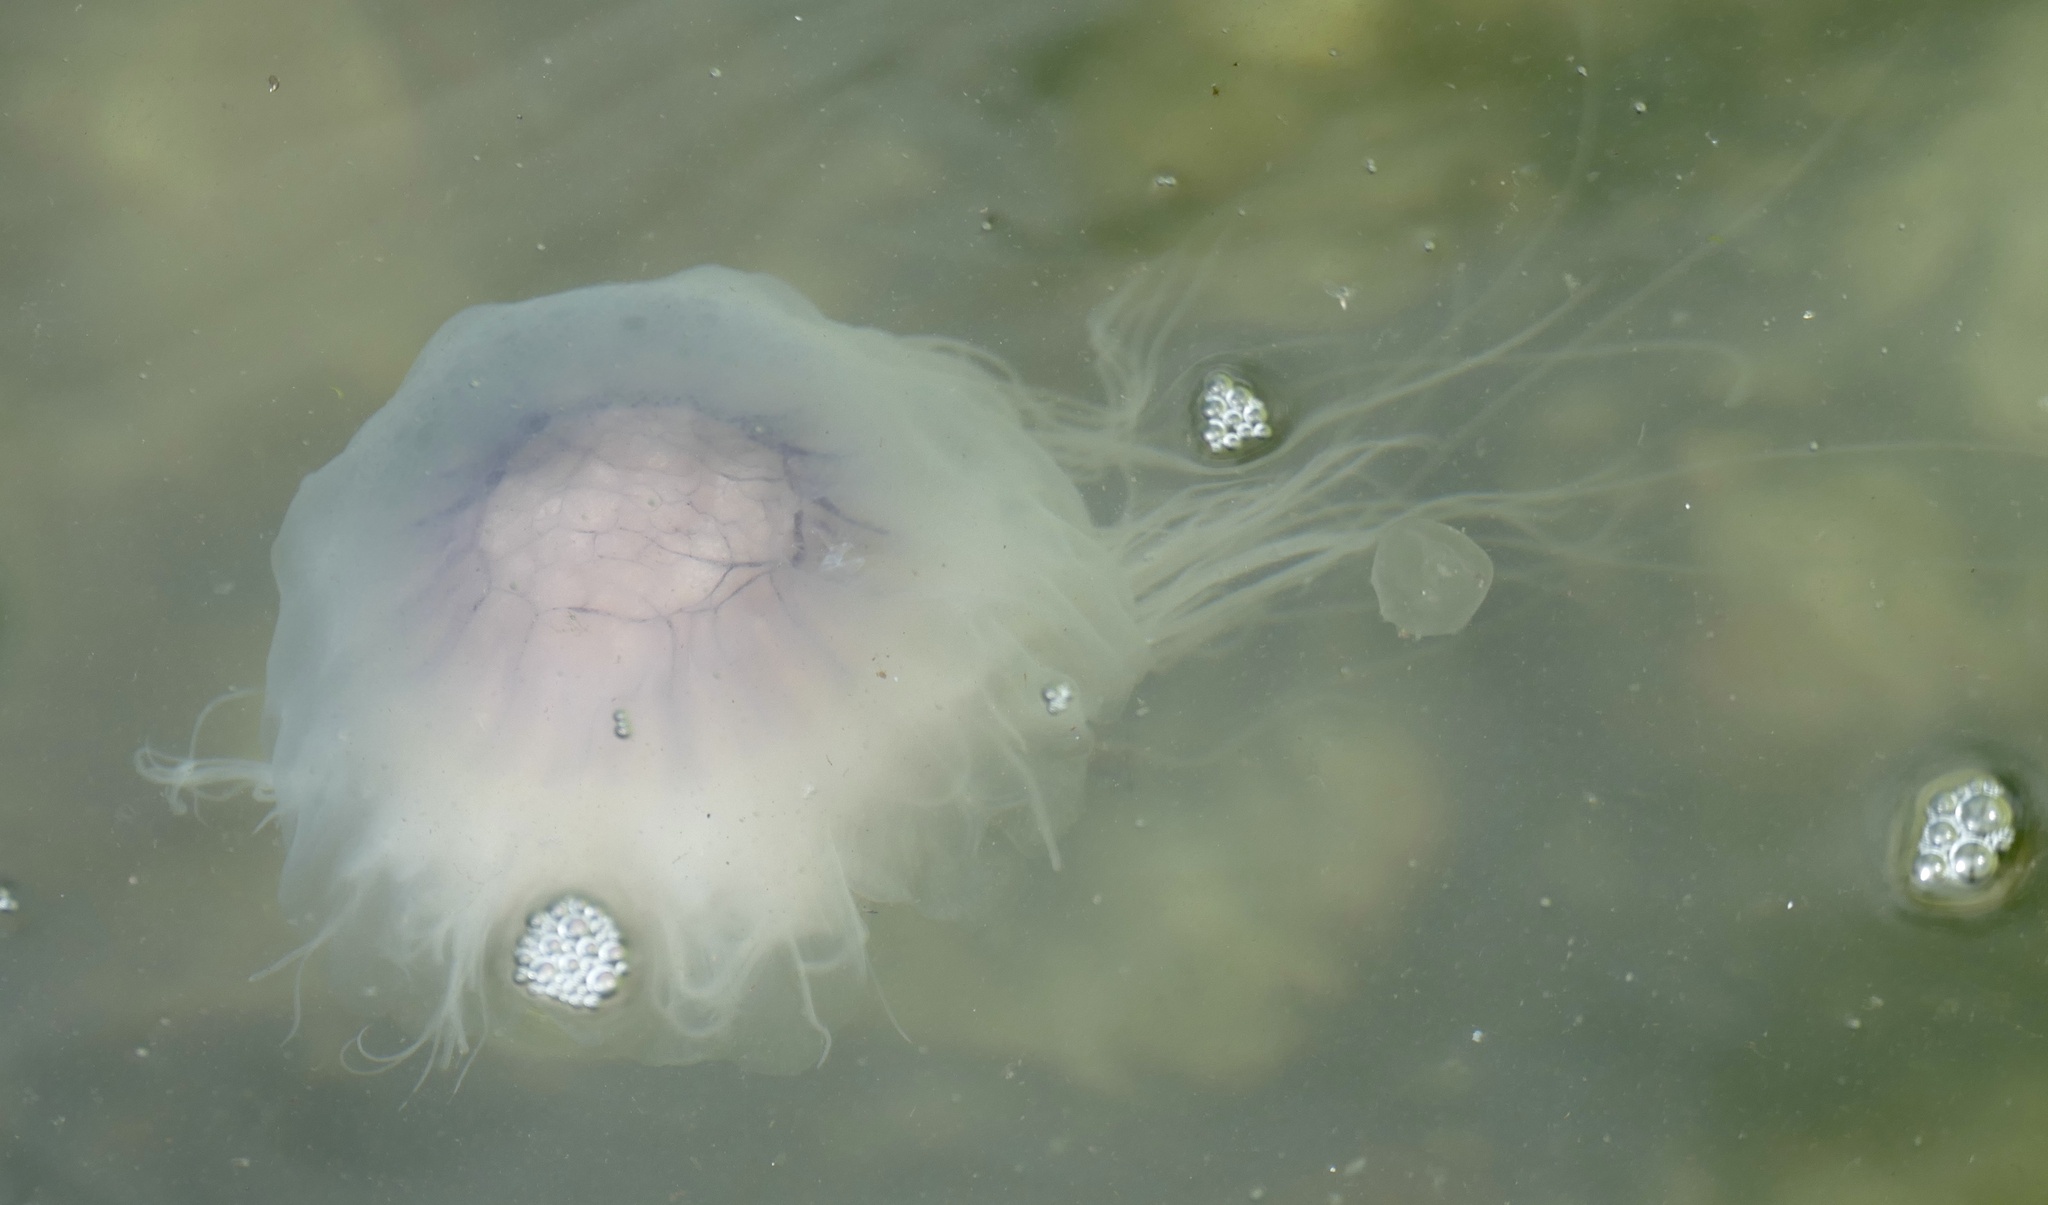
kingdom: Animalia
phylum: Cnidaria
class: Scyphozoa
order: Semaeostomeae
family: Cyaneidae
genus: Cyanea
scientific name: Cyanea lamarckii
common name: Blue jellyfish
